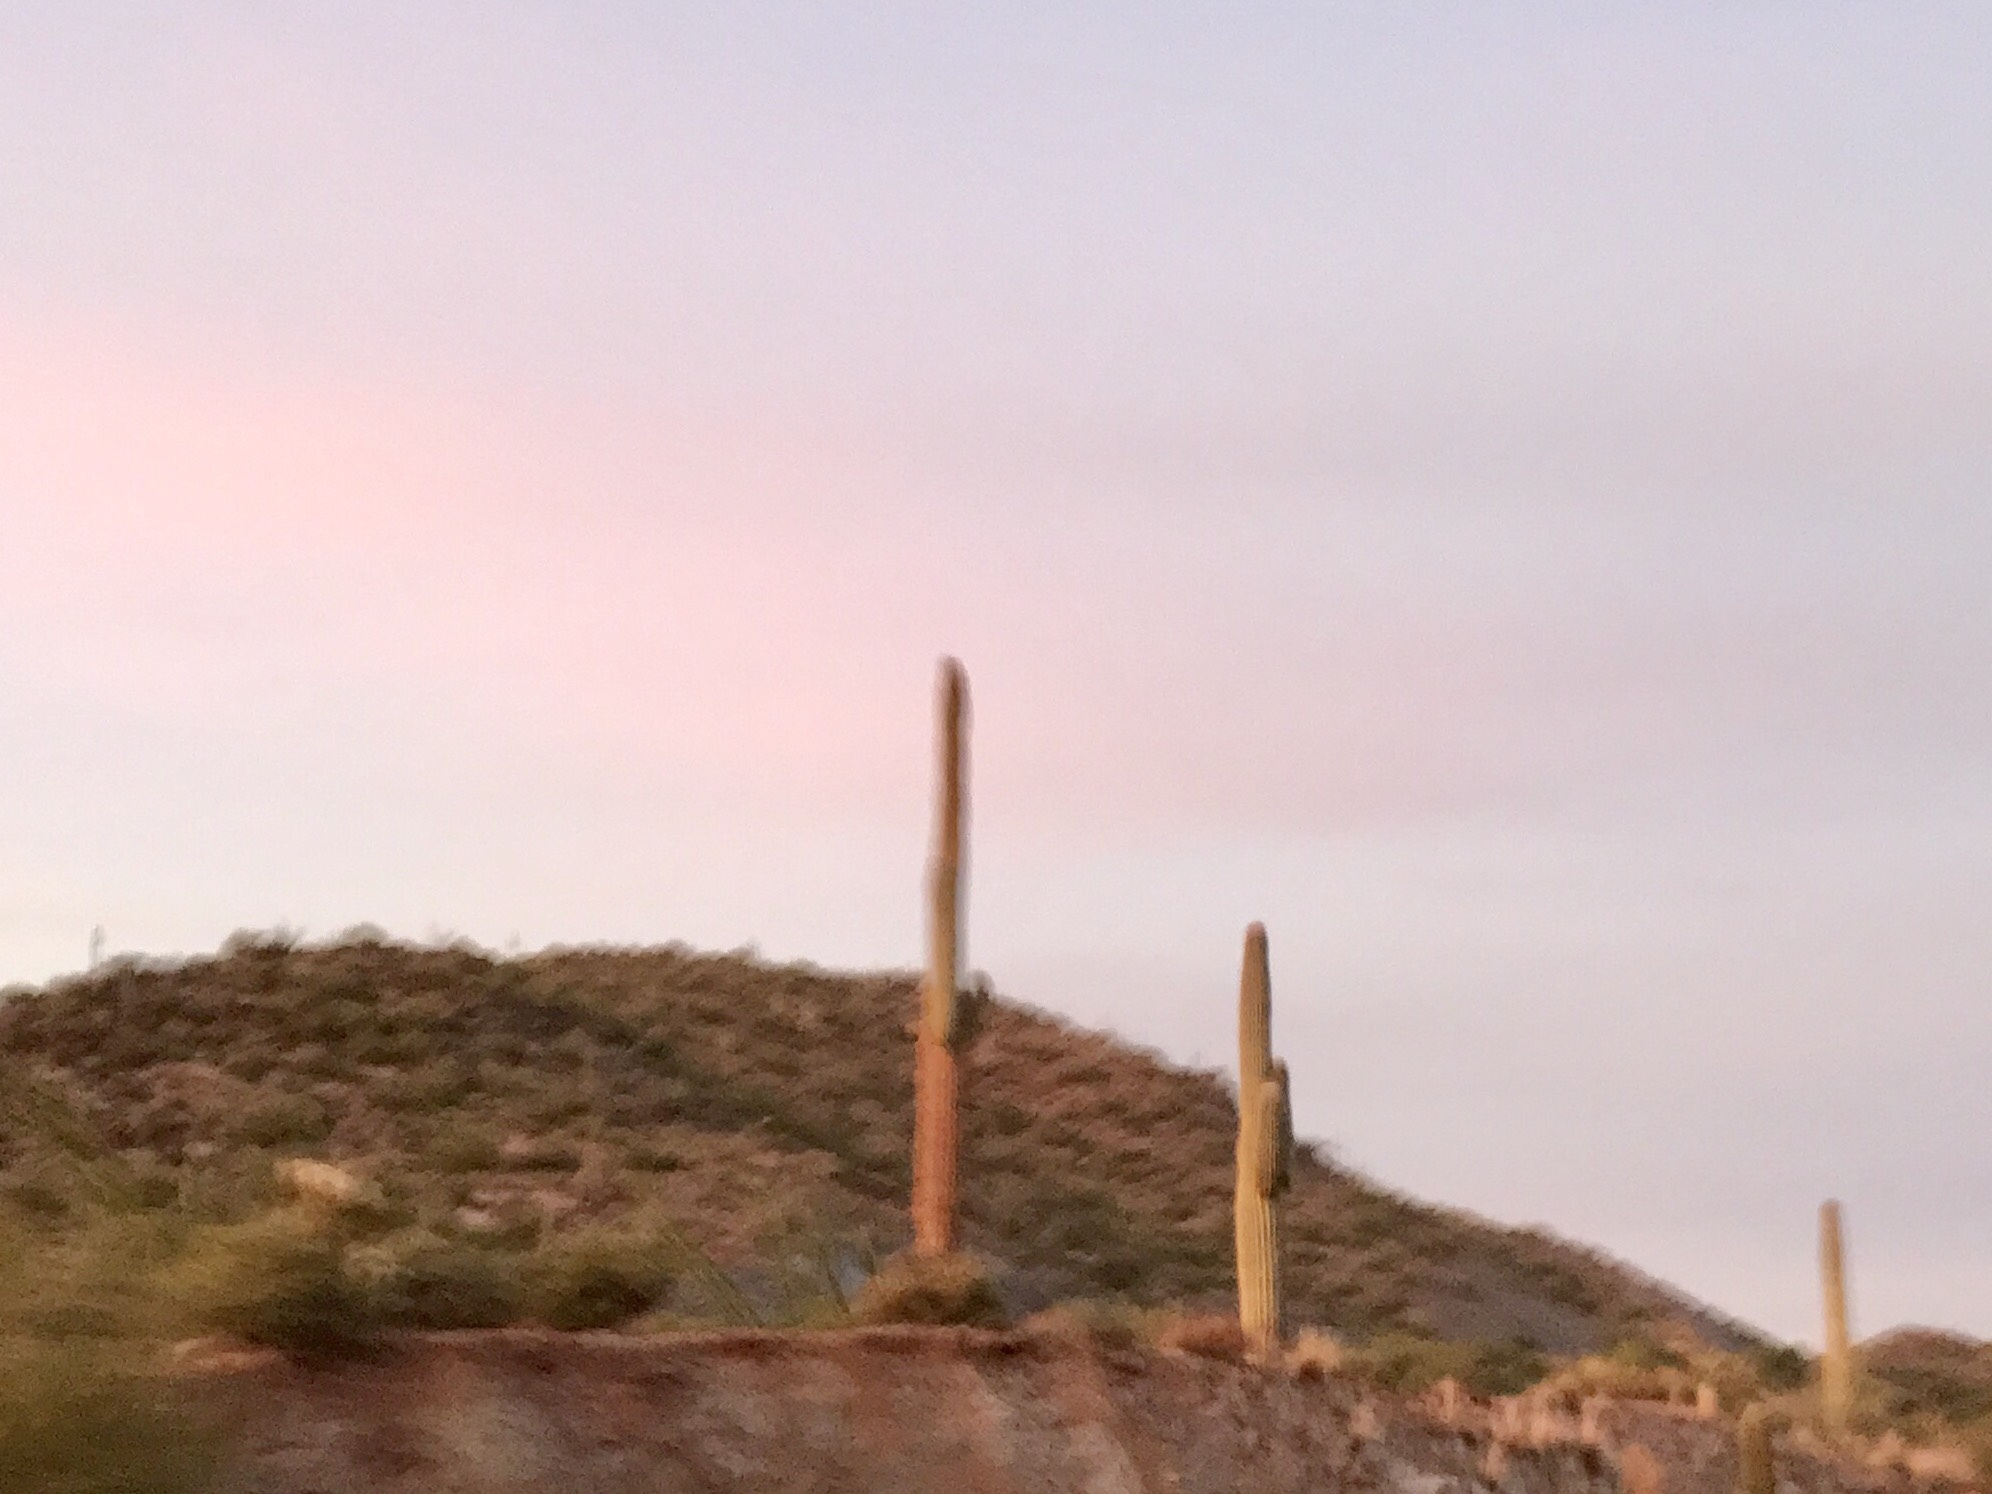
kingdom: Plantae
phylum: Tracheophyta
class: Magnoliopsida
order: Caryophyllales
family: Cactaceae
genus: Carnegiea
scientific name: Carnegiea gigantea
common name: Saguaro
